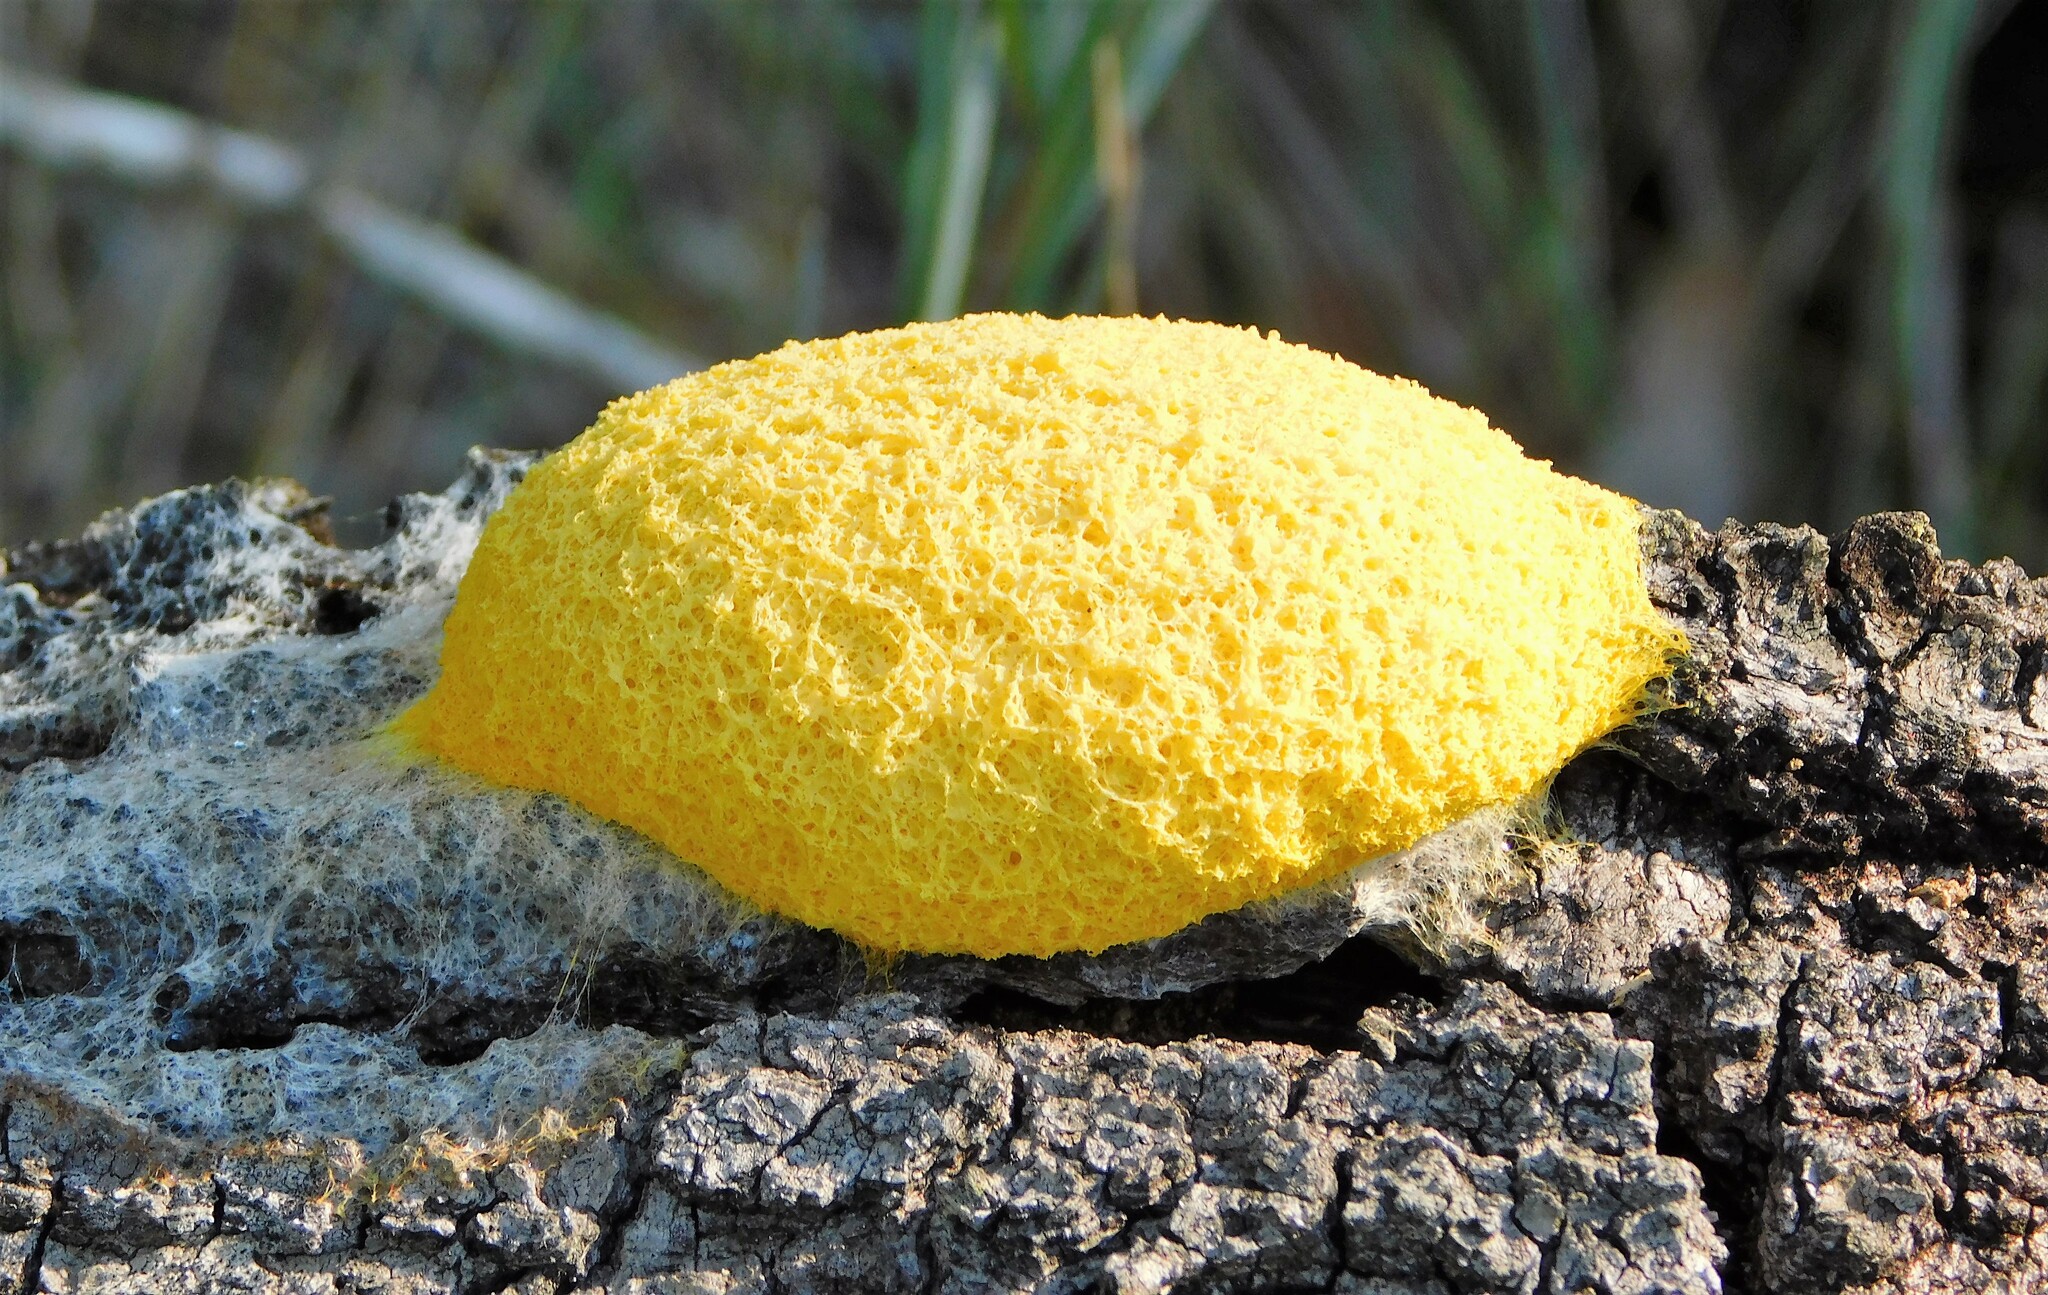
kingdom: Protozoa
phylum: Mycetozoa
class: Myxomycetes
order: Physarales
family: Physaraceae
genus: Fuligo
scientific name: Fuligo septica
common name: Dog vomit slime mold
